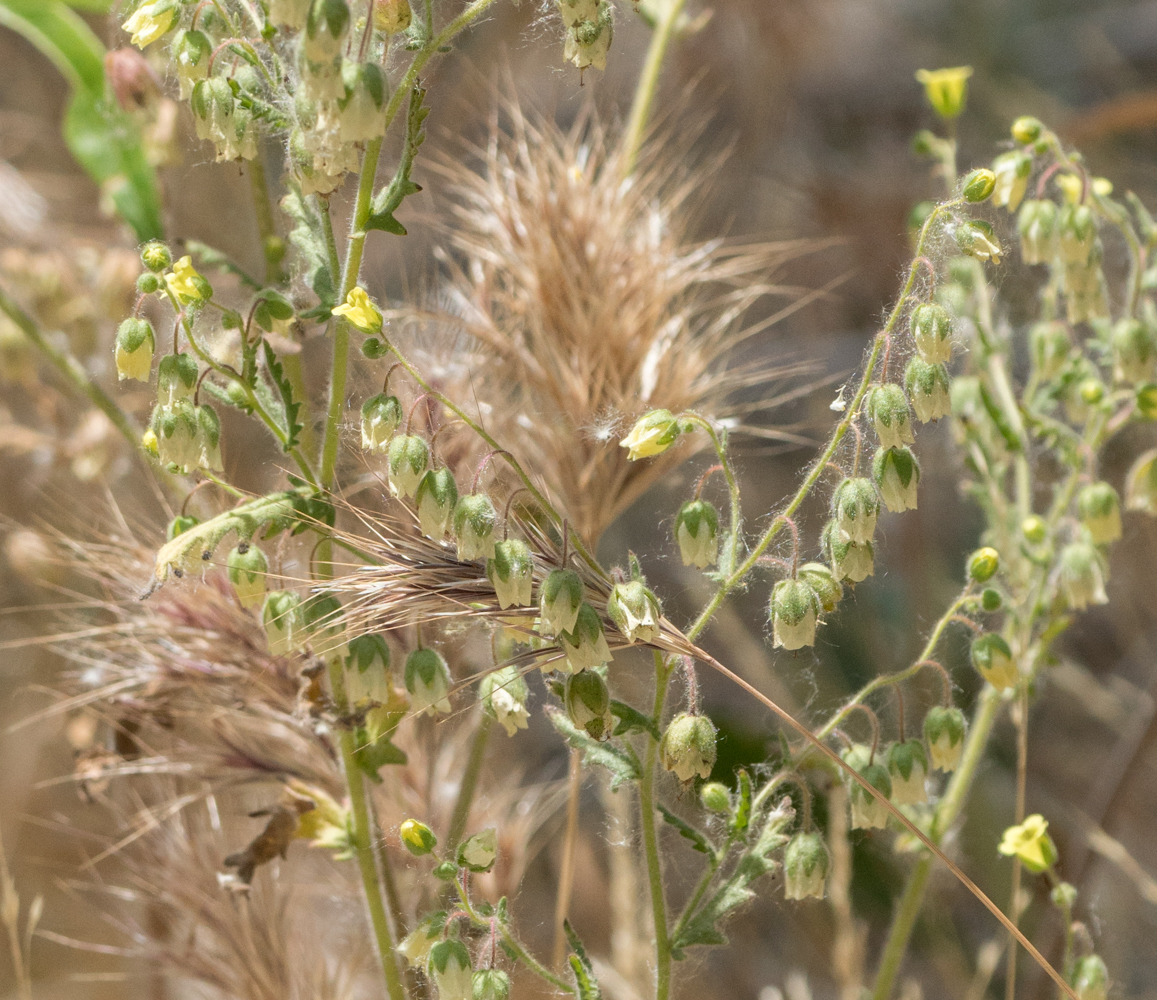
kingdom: Plantae
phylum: Tracheophyta
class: Liliopsida
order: Poales
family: Poaceae
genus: Bromus
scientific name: Bromus rubens
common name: Red brome
